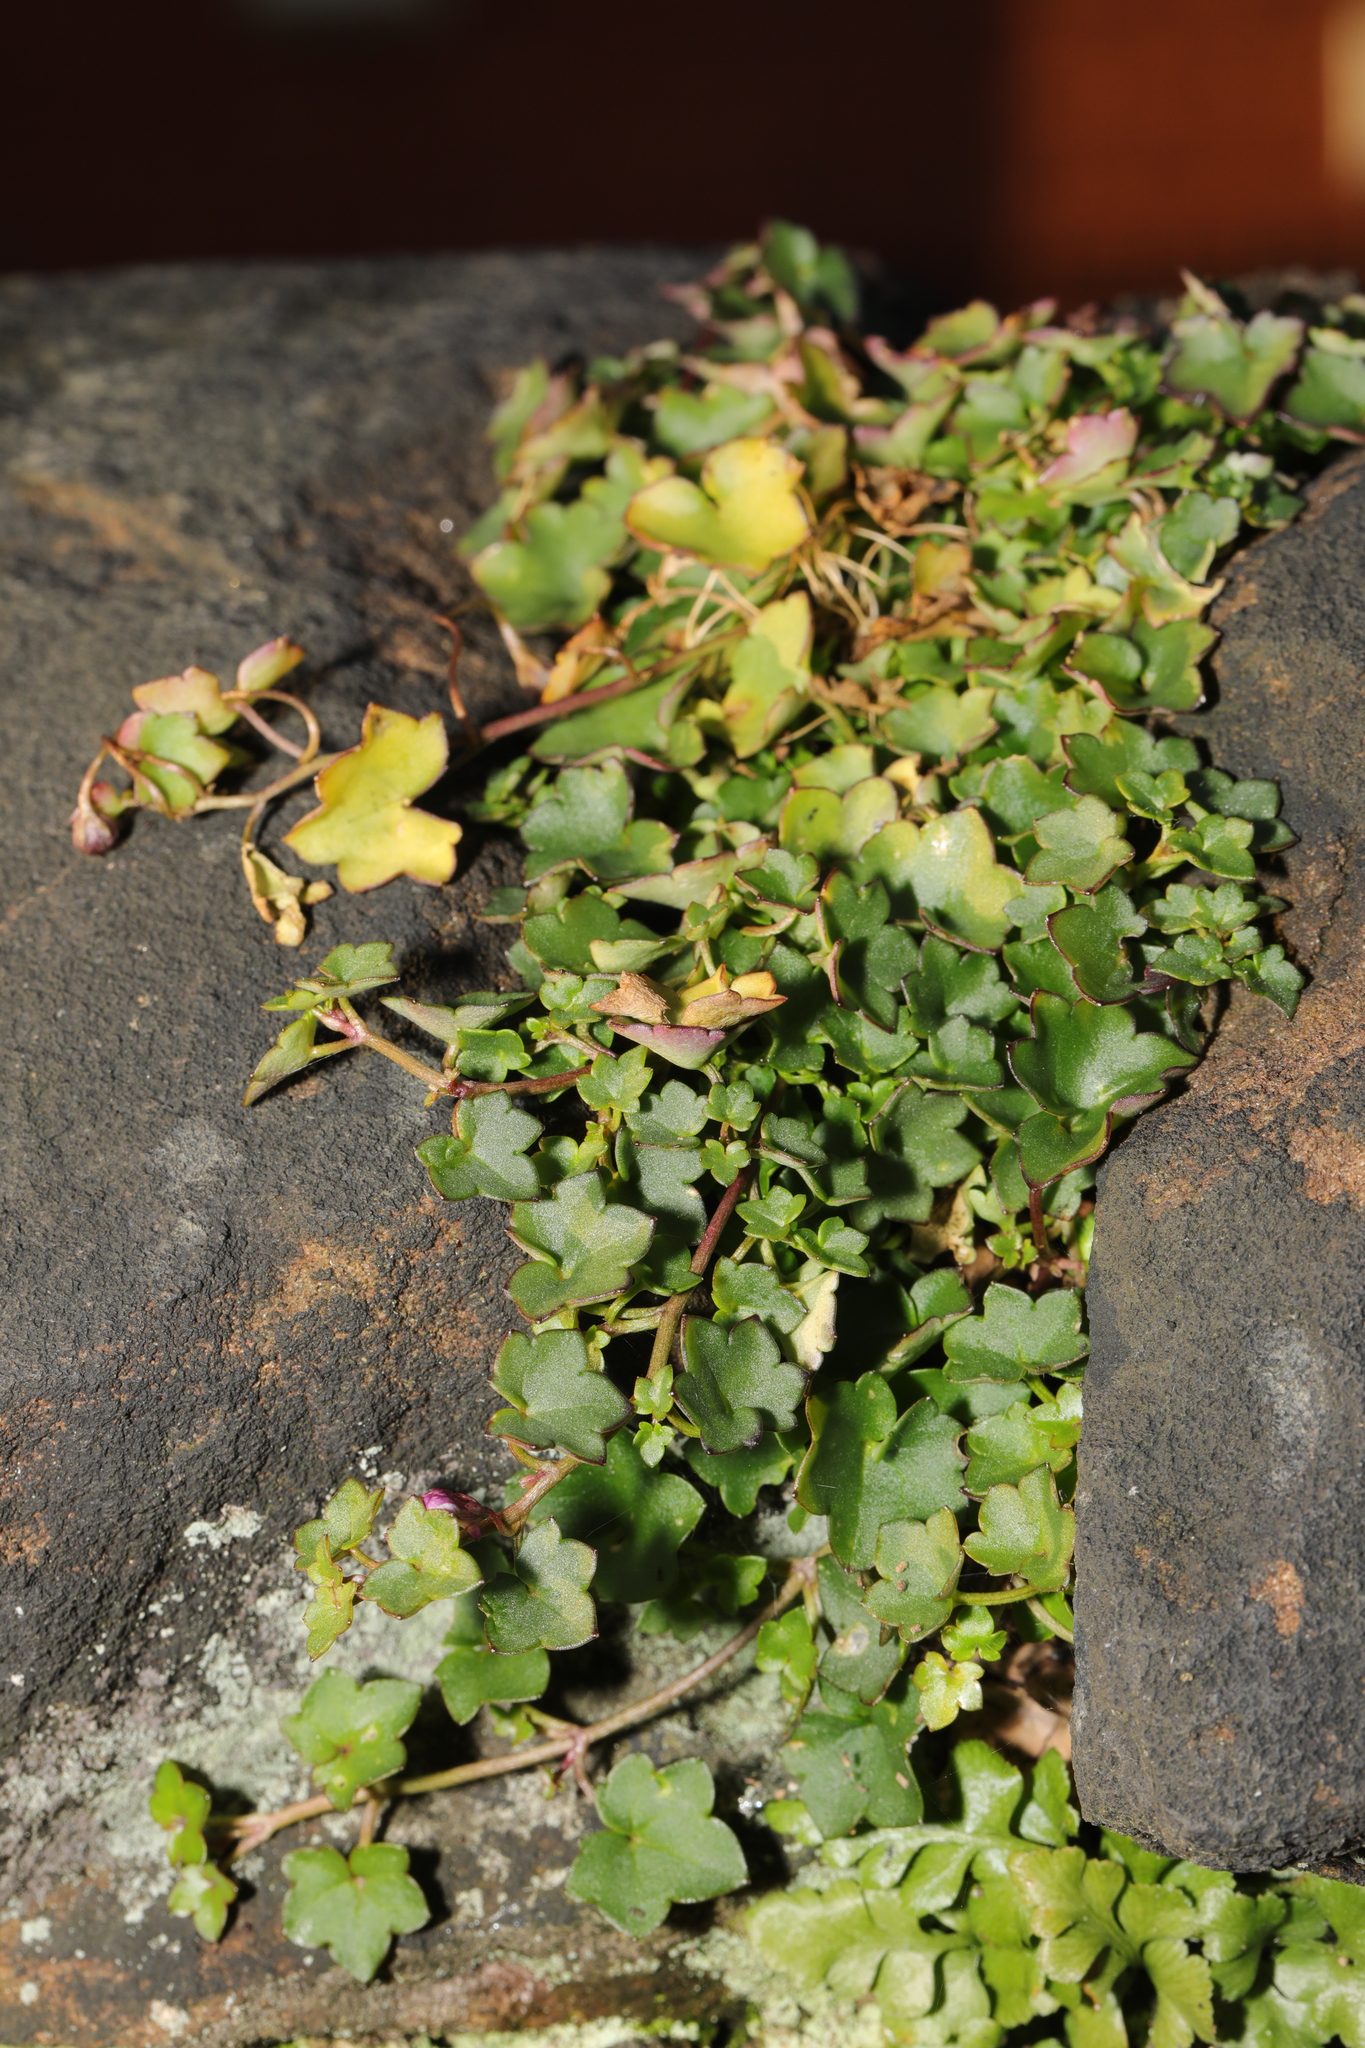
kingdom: Plantae
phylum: Tracheophyta
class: Magnoliopsida
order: Lamiales
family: Plantaginaceae
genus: Cymbalaria
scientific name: Cymbalaria muralis
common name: Ivy-leaved toadflax
